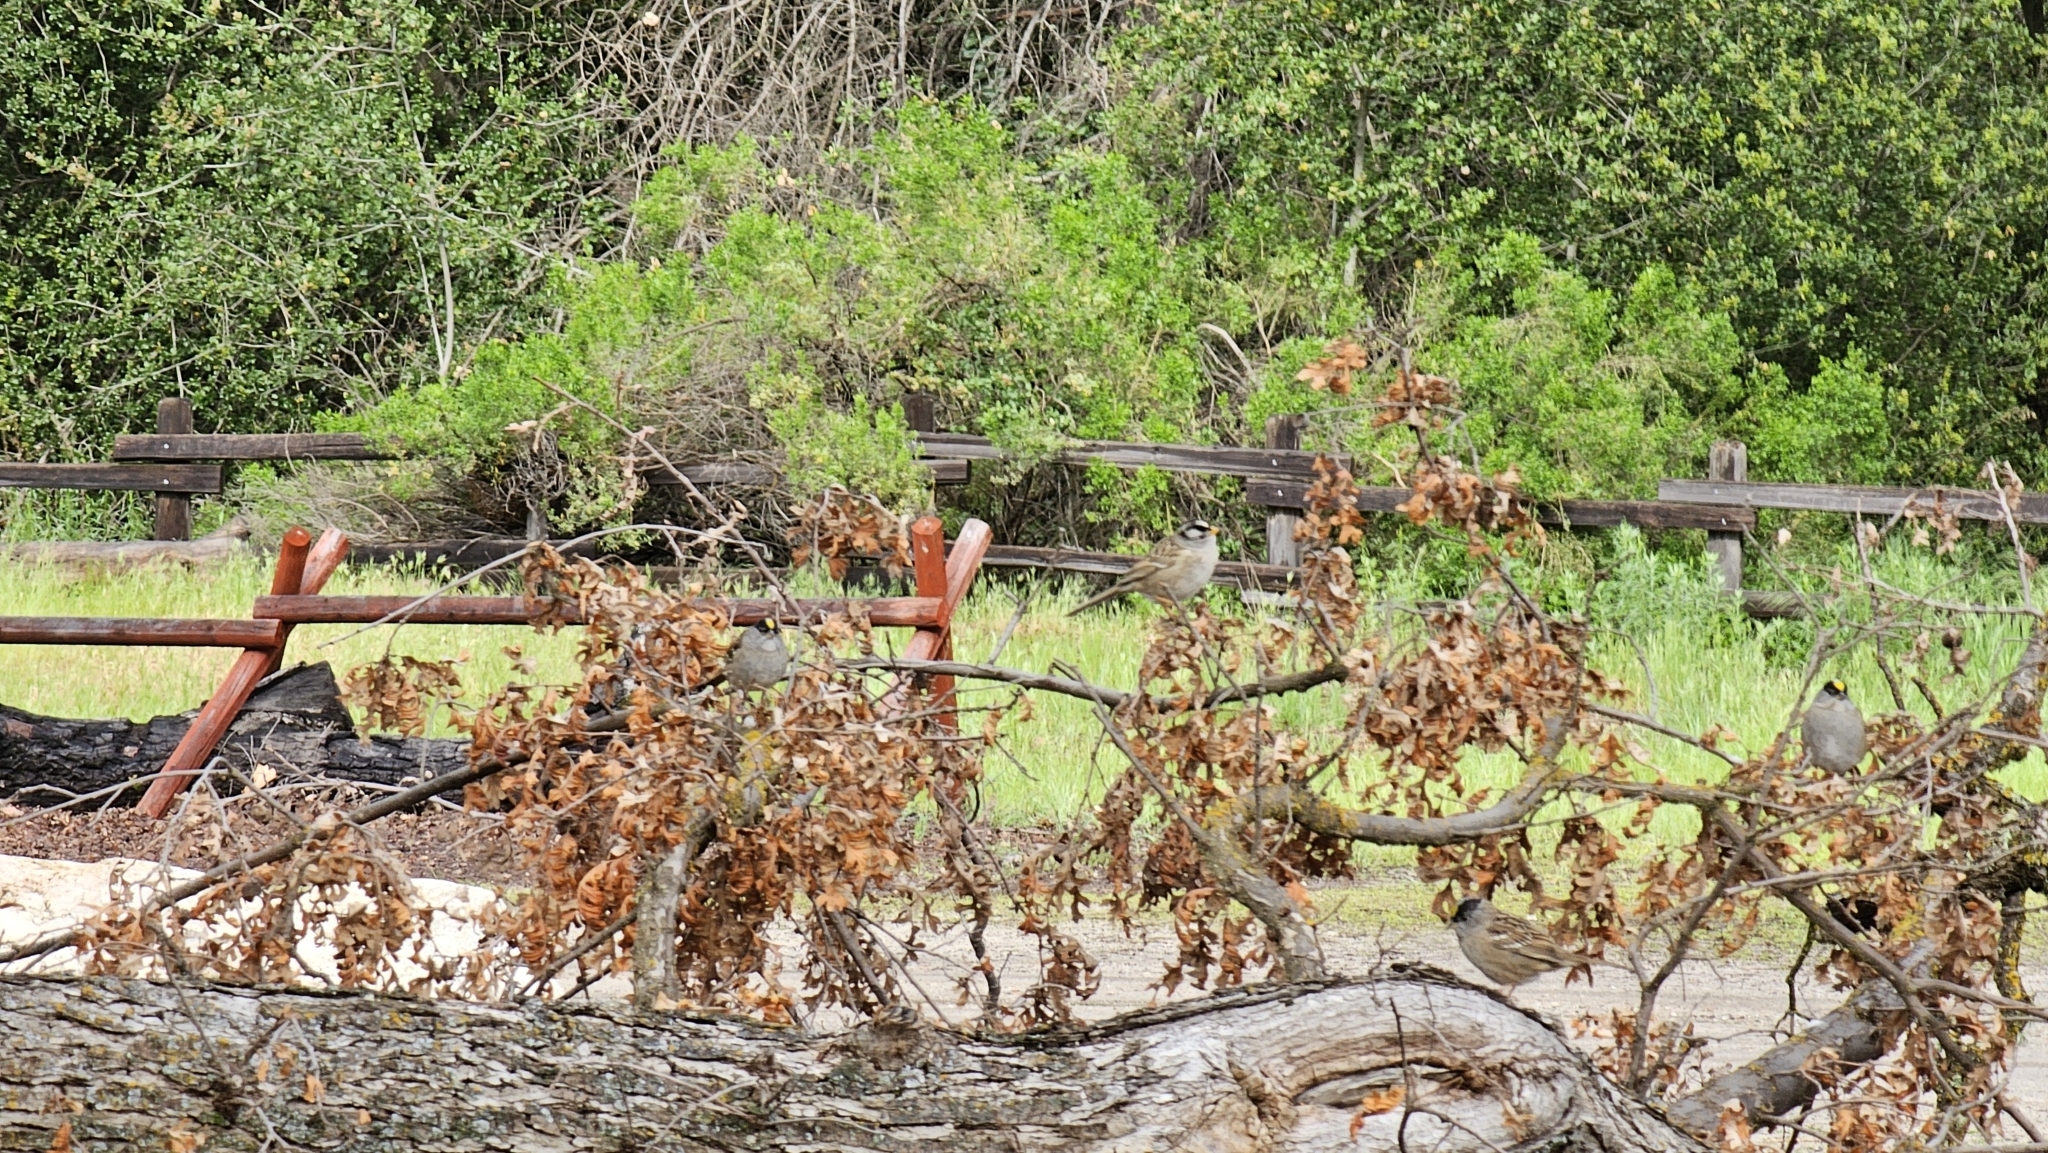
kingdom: Animalia
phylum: Chordata
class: Aves
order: Passeriformes
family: Passerellidae
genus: Zonotrichia
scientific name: Zonotrichia atricapilla
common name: Golden-crowned sparrow
